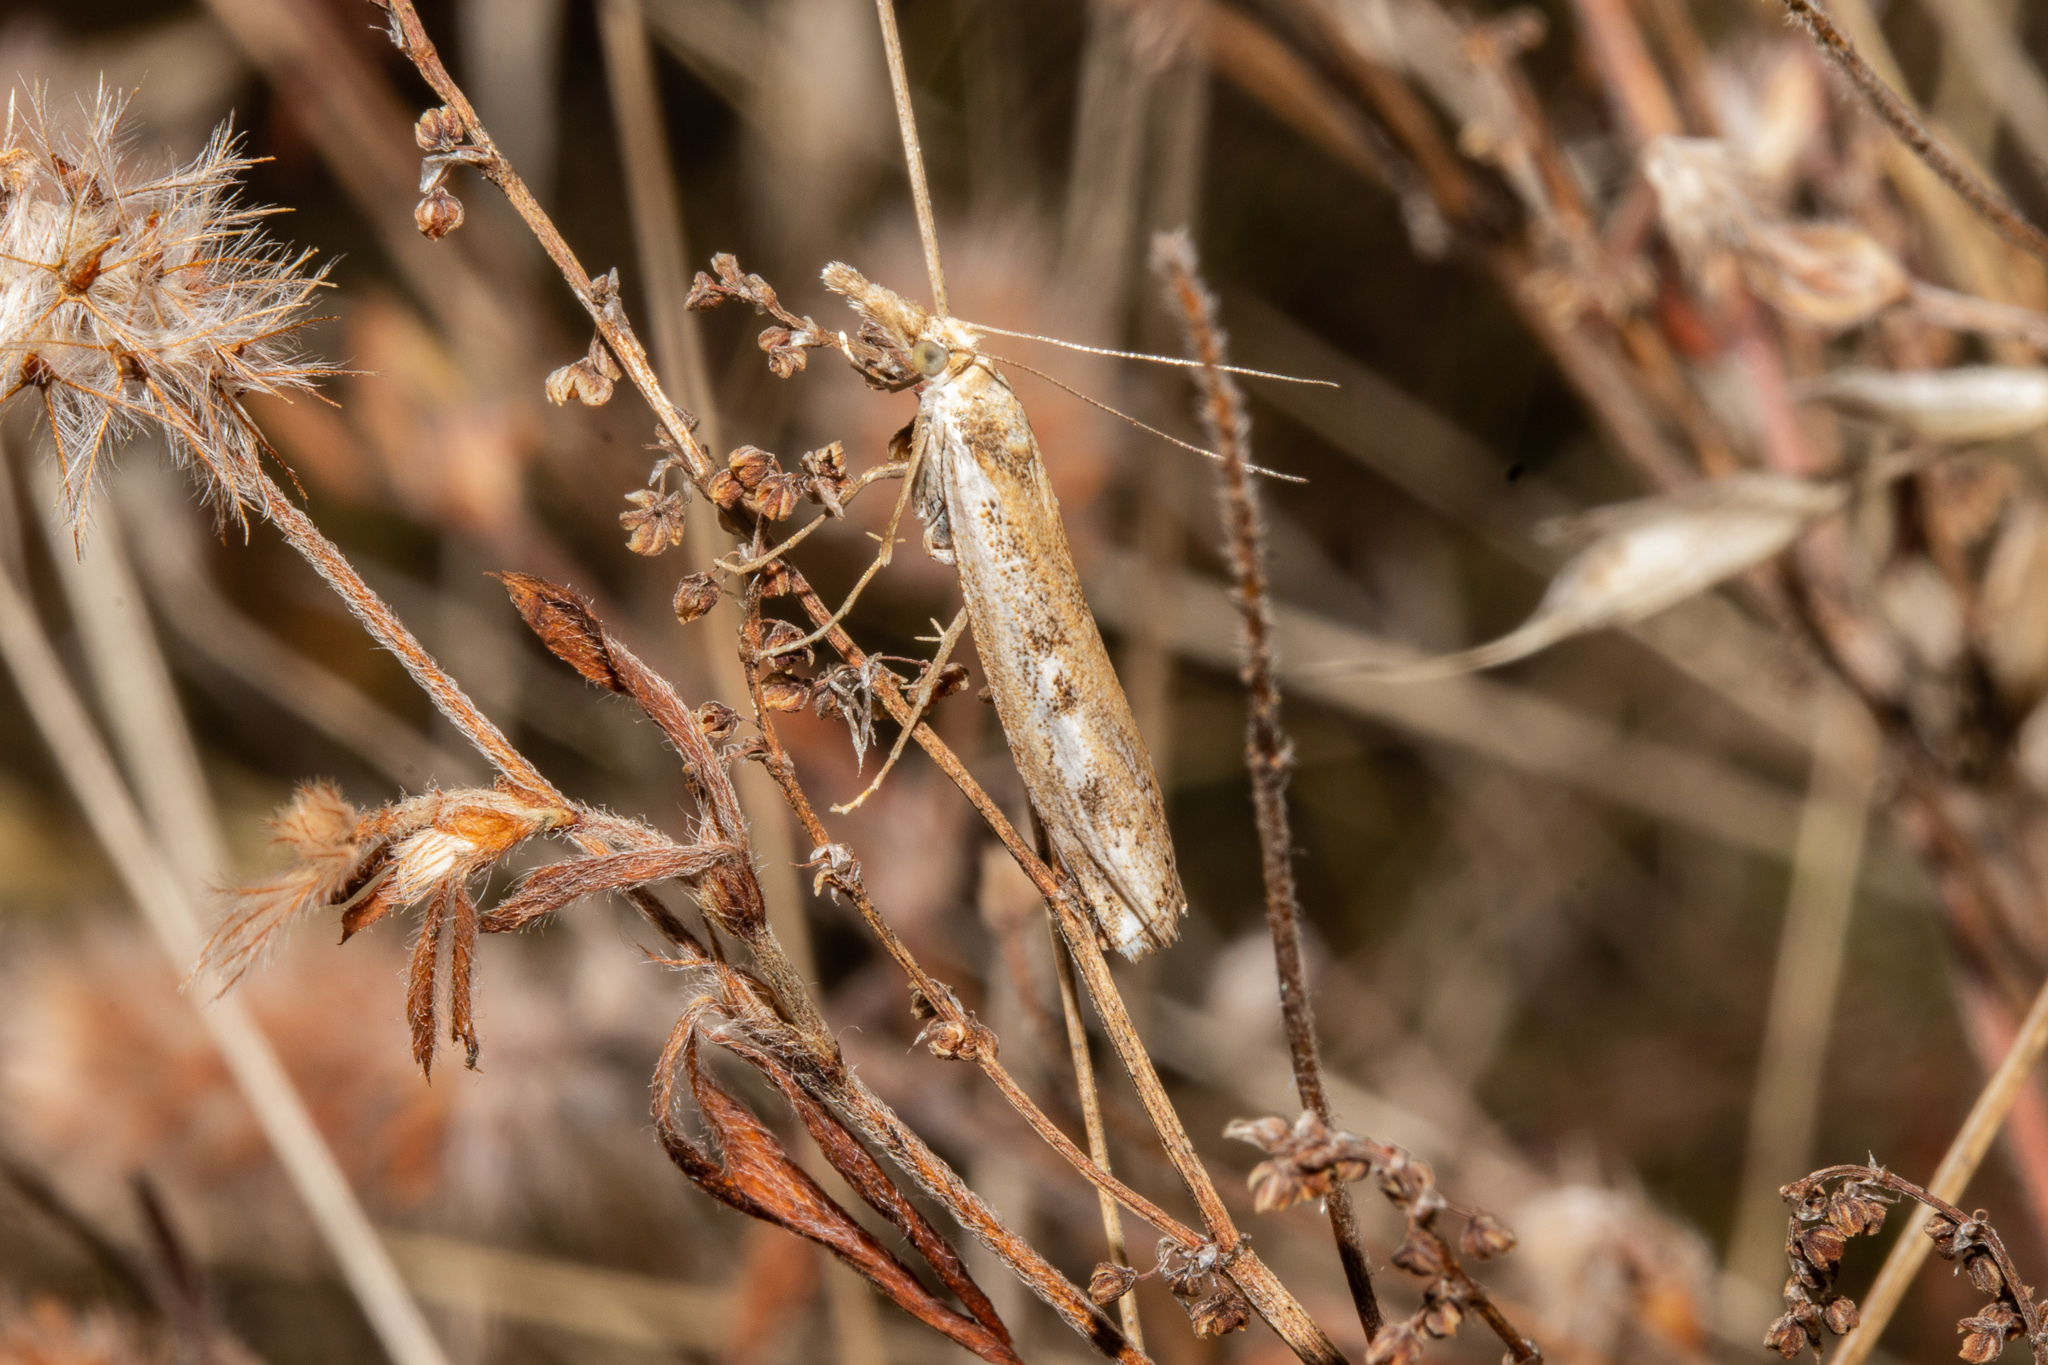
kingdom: Animalia
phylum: Arthropoda
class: Insecta
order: Lepidoptera
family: Crambidae
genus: Orocrambus
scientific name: Orocrambus vulgaris
